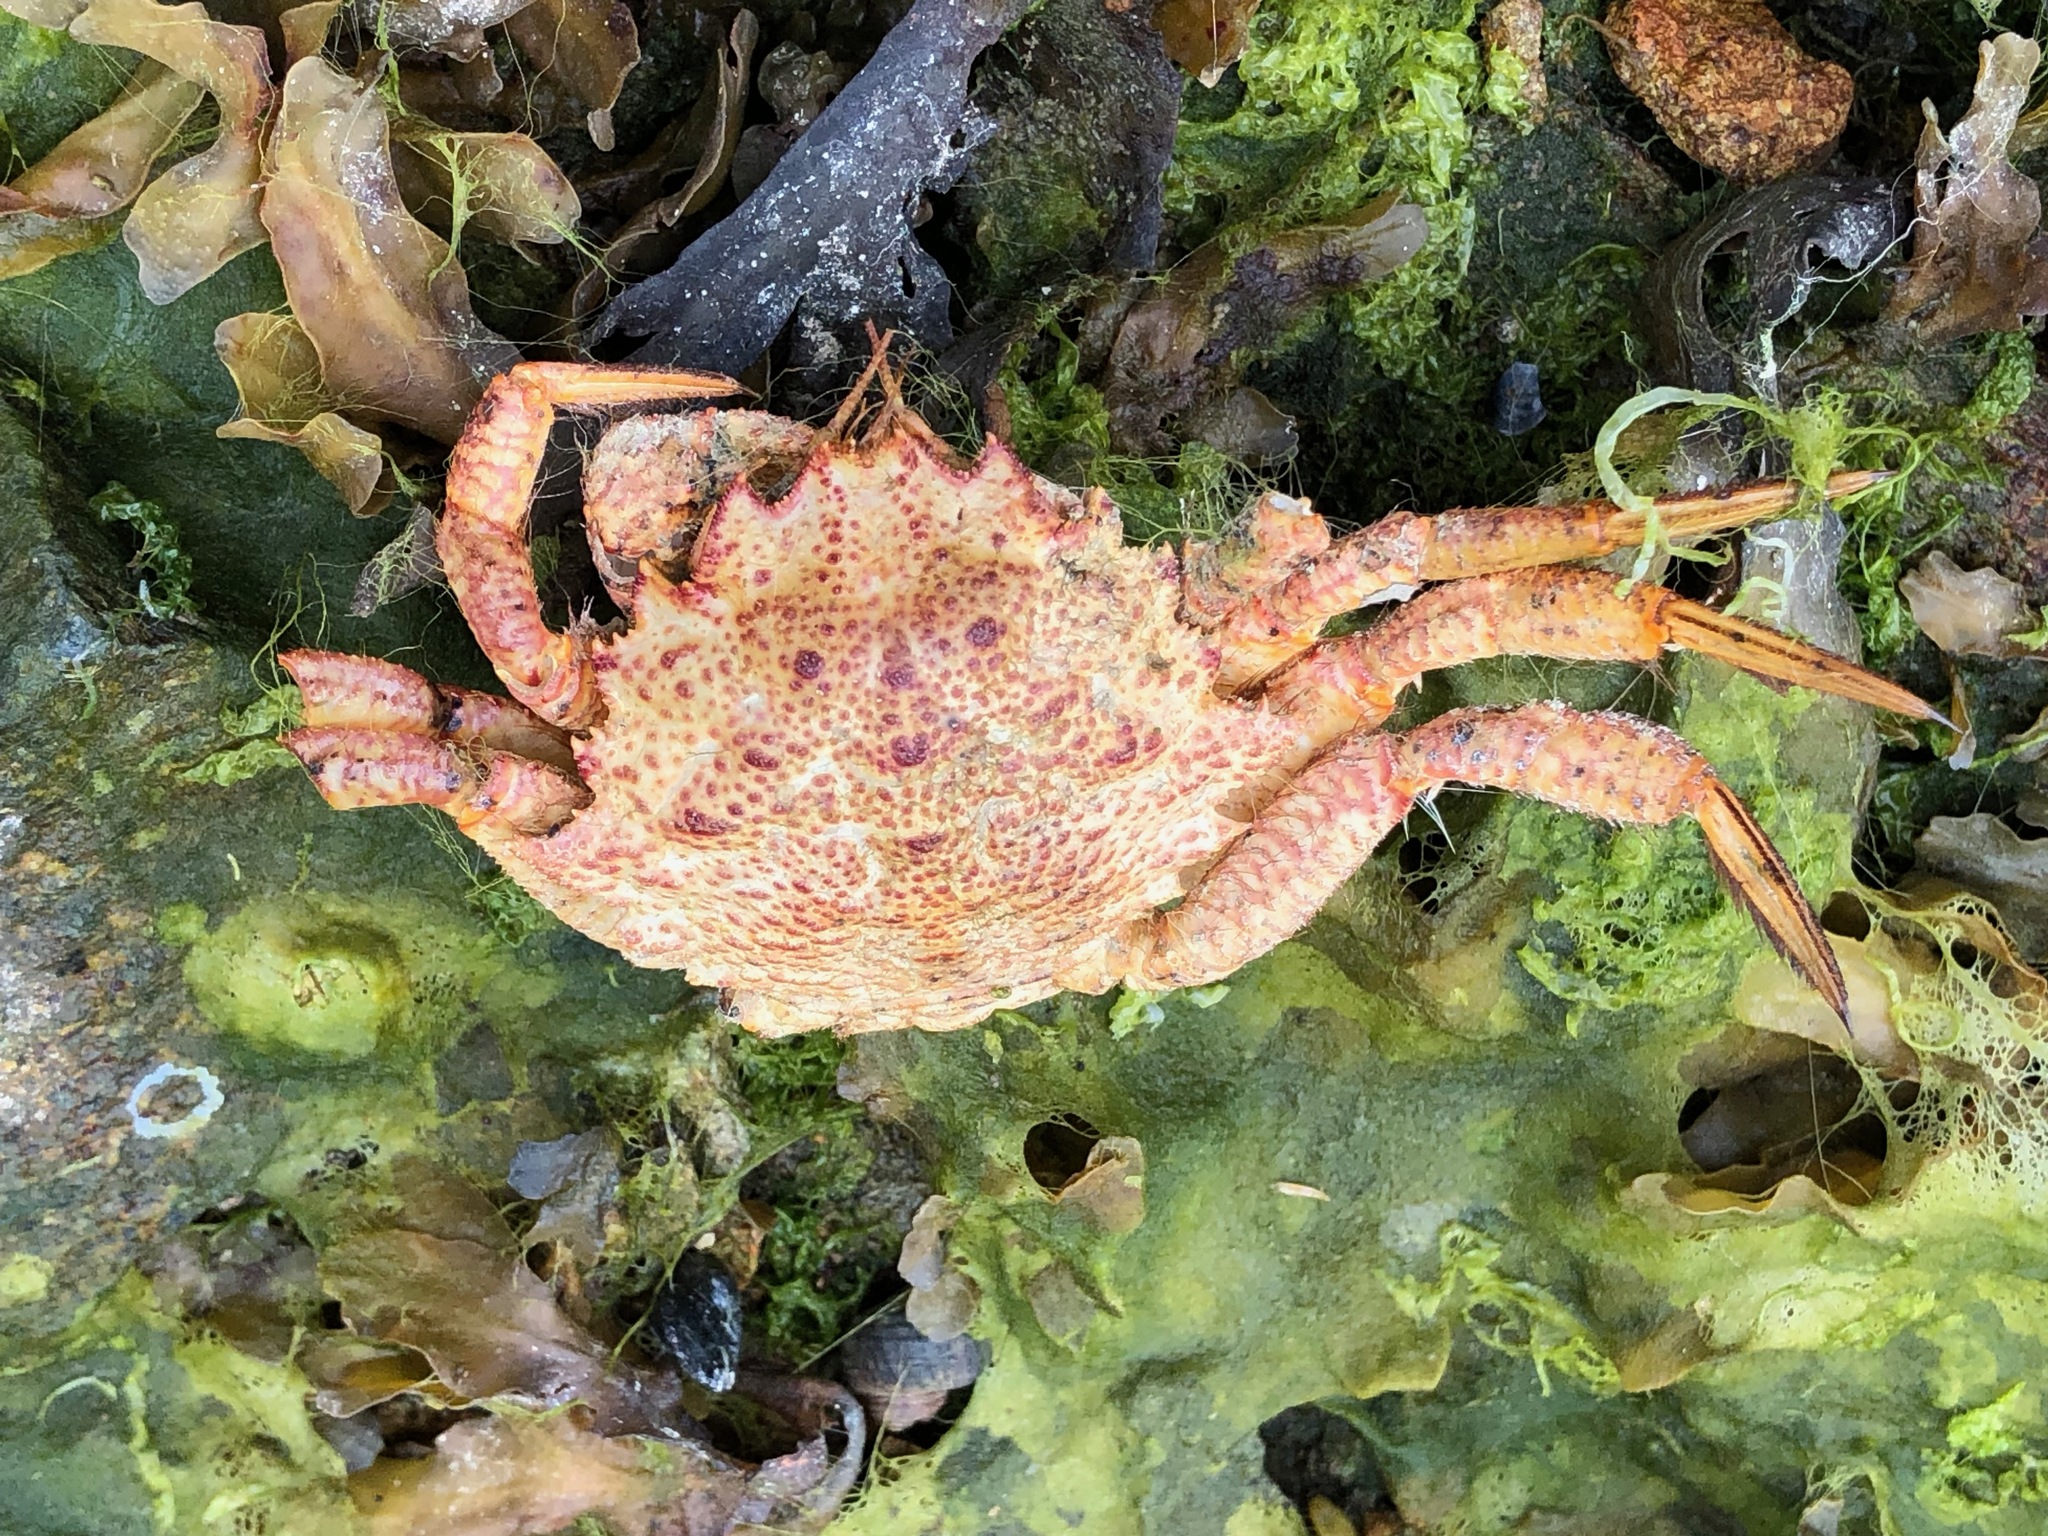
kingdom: Animalia
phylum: Arthropoda
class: Malacostraca
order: Decapoda
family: Cheiragonidae
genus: Telmessus
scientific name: Telmessus cheiragonus
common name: Helmet crab
